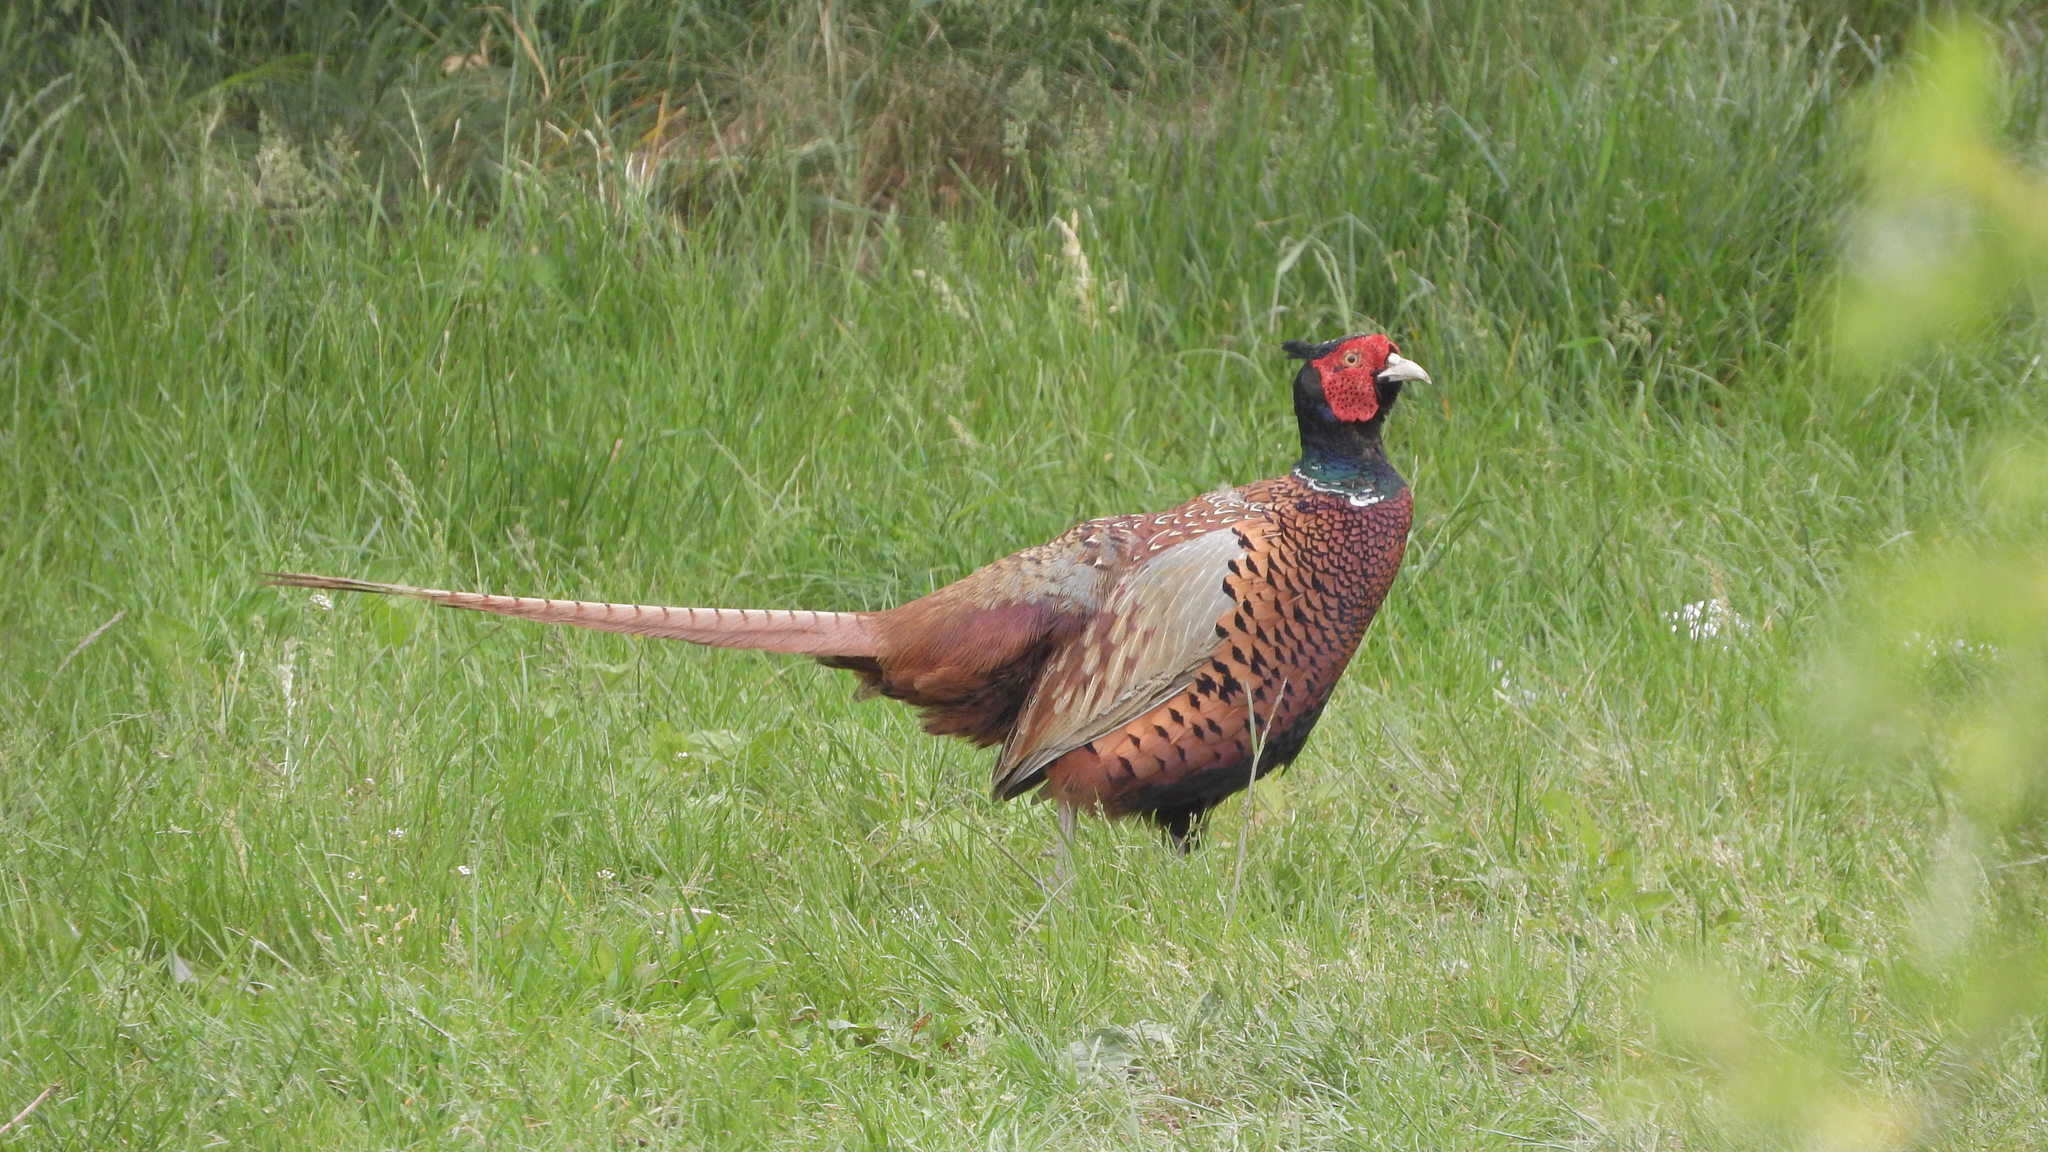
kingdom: Animalia
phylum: Chordata
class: Aves
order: Galliformes
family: Phasianidae
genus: Phasianus
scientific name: Phasianus colchicus
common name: Common pheasant
